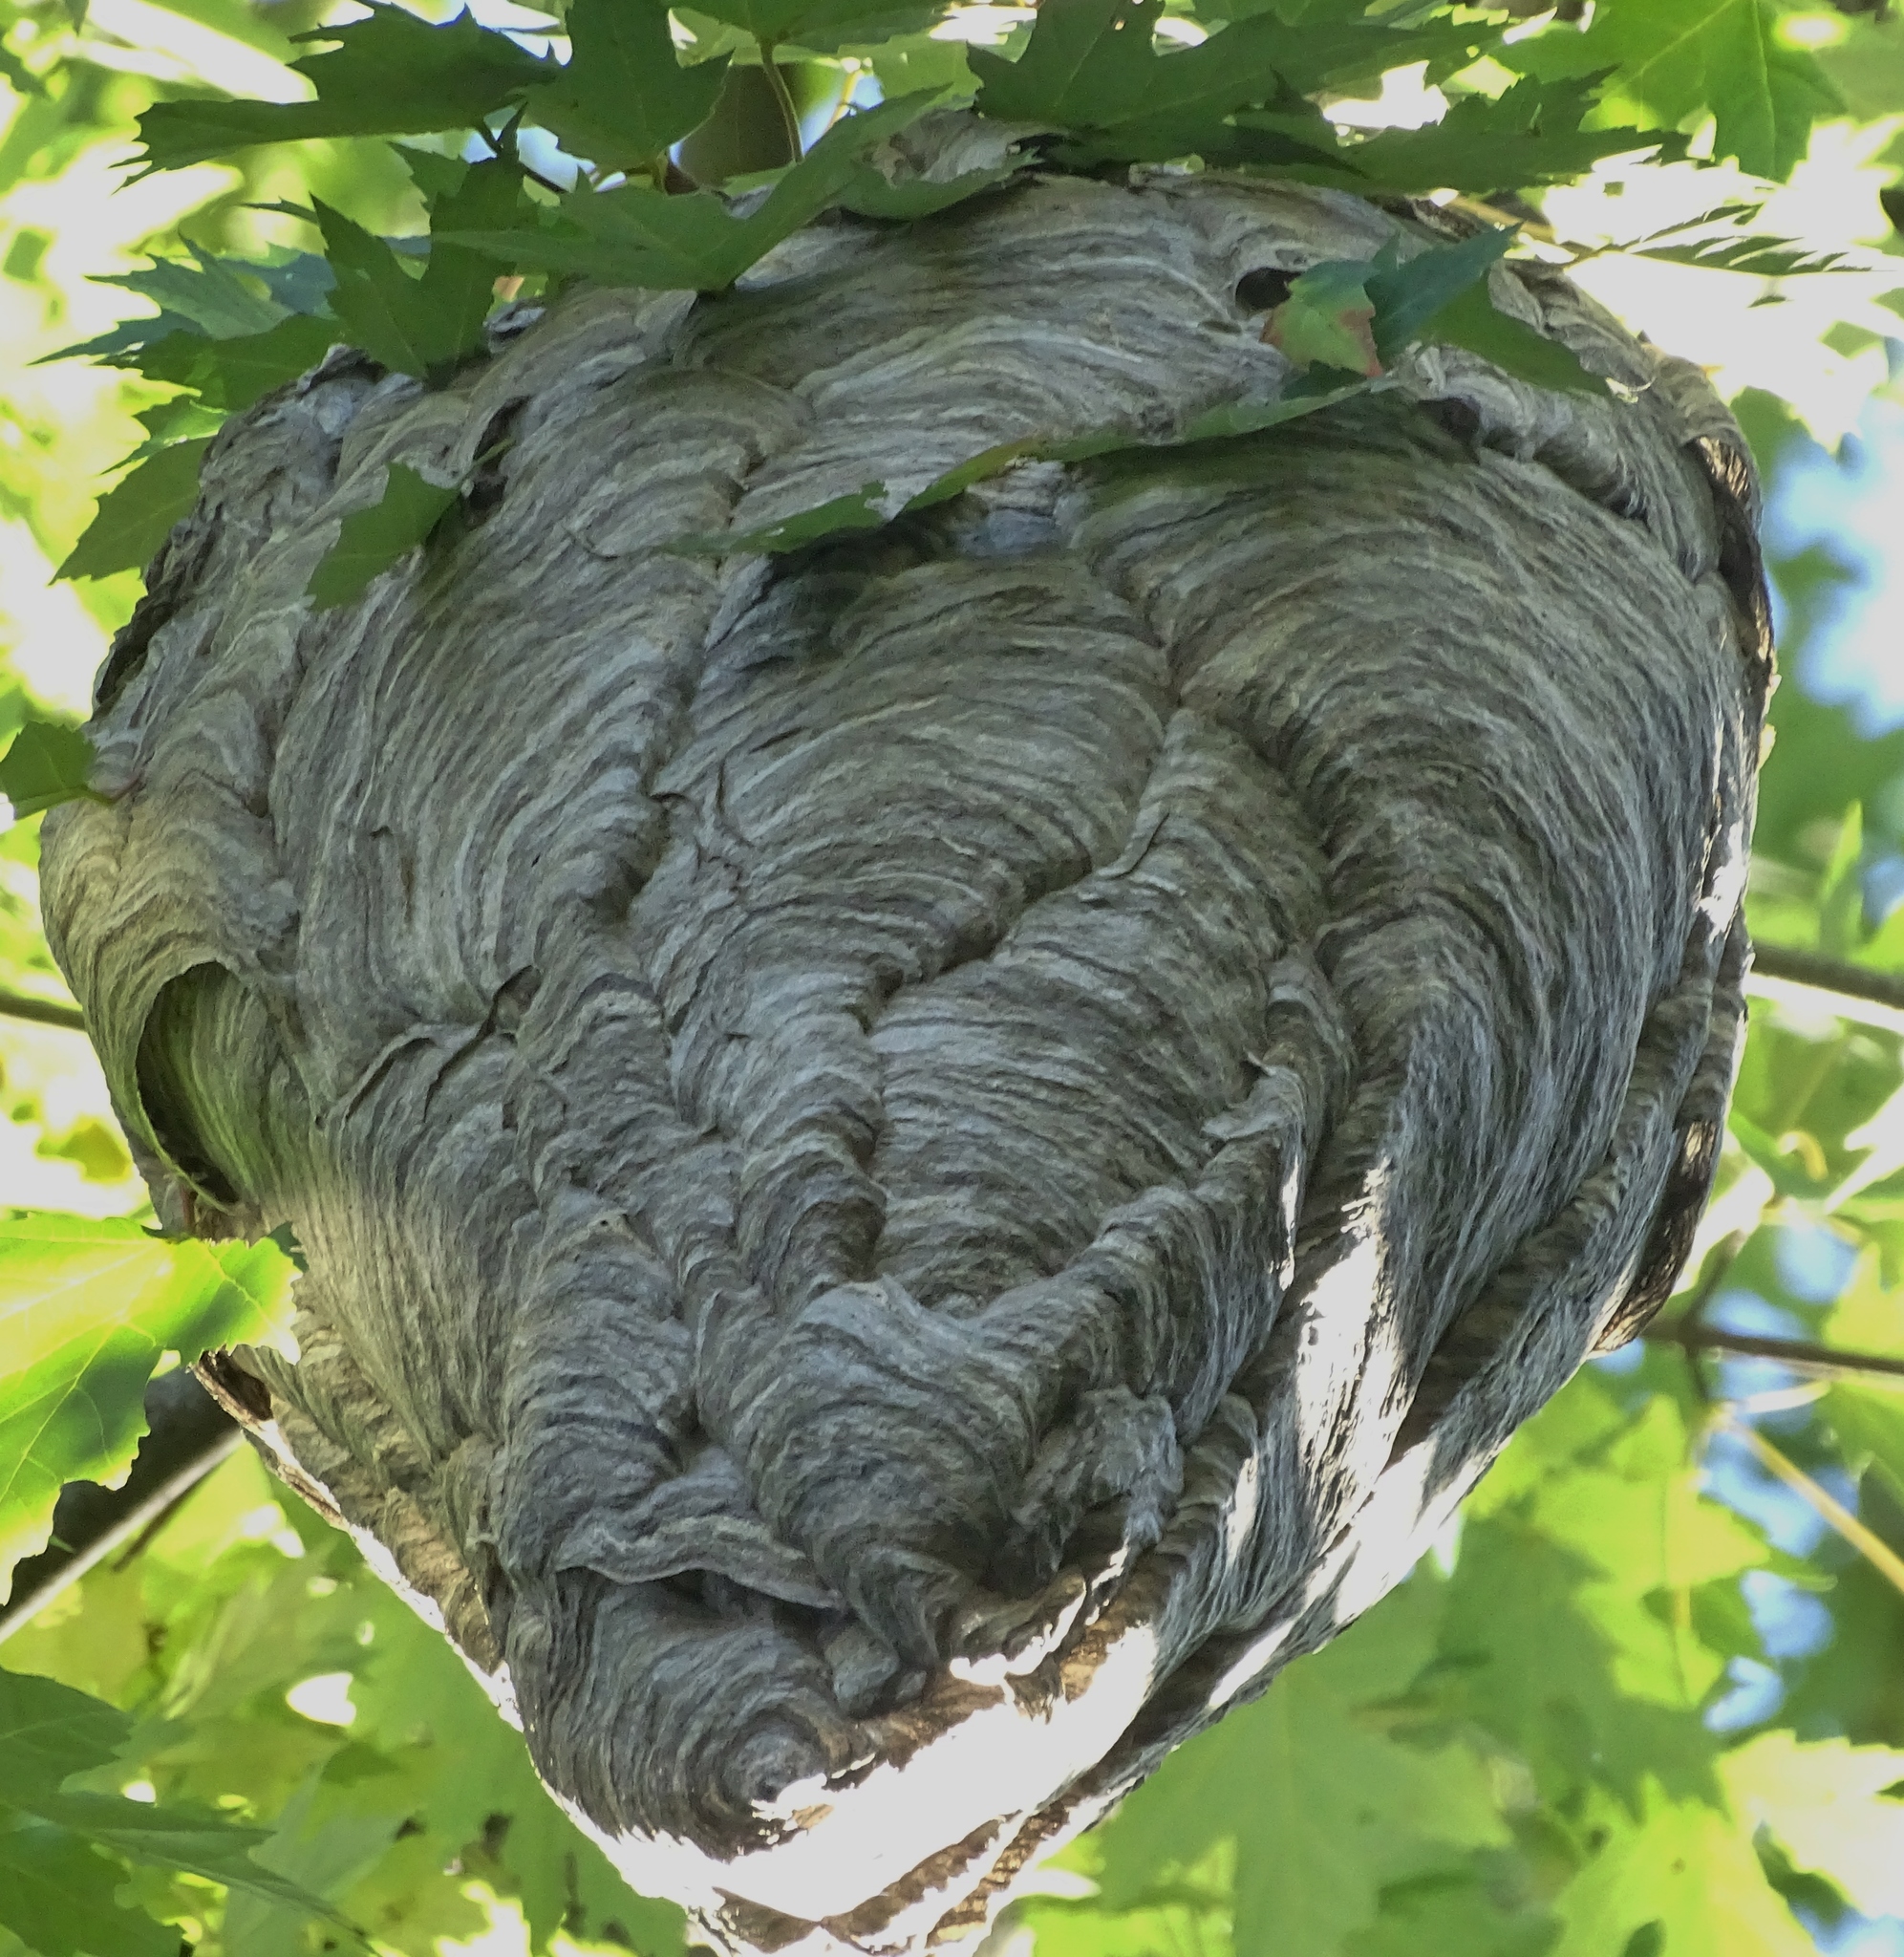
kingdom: Animalia
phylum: Arthropoda
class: Insecta
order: Hymenoptera
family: Vespidae
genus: Dolichovespula
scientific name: Dolichovespula maculata
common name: Bald-faced hornet
